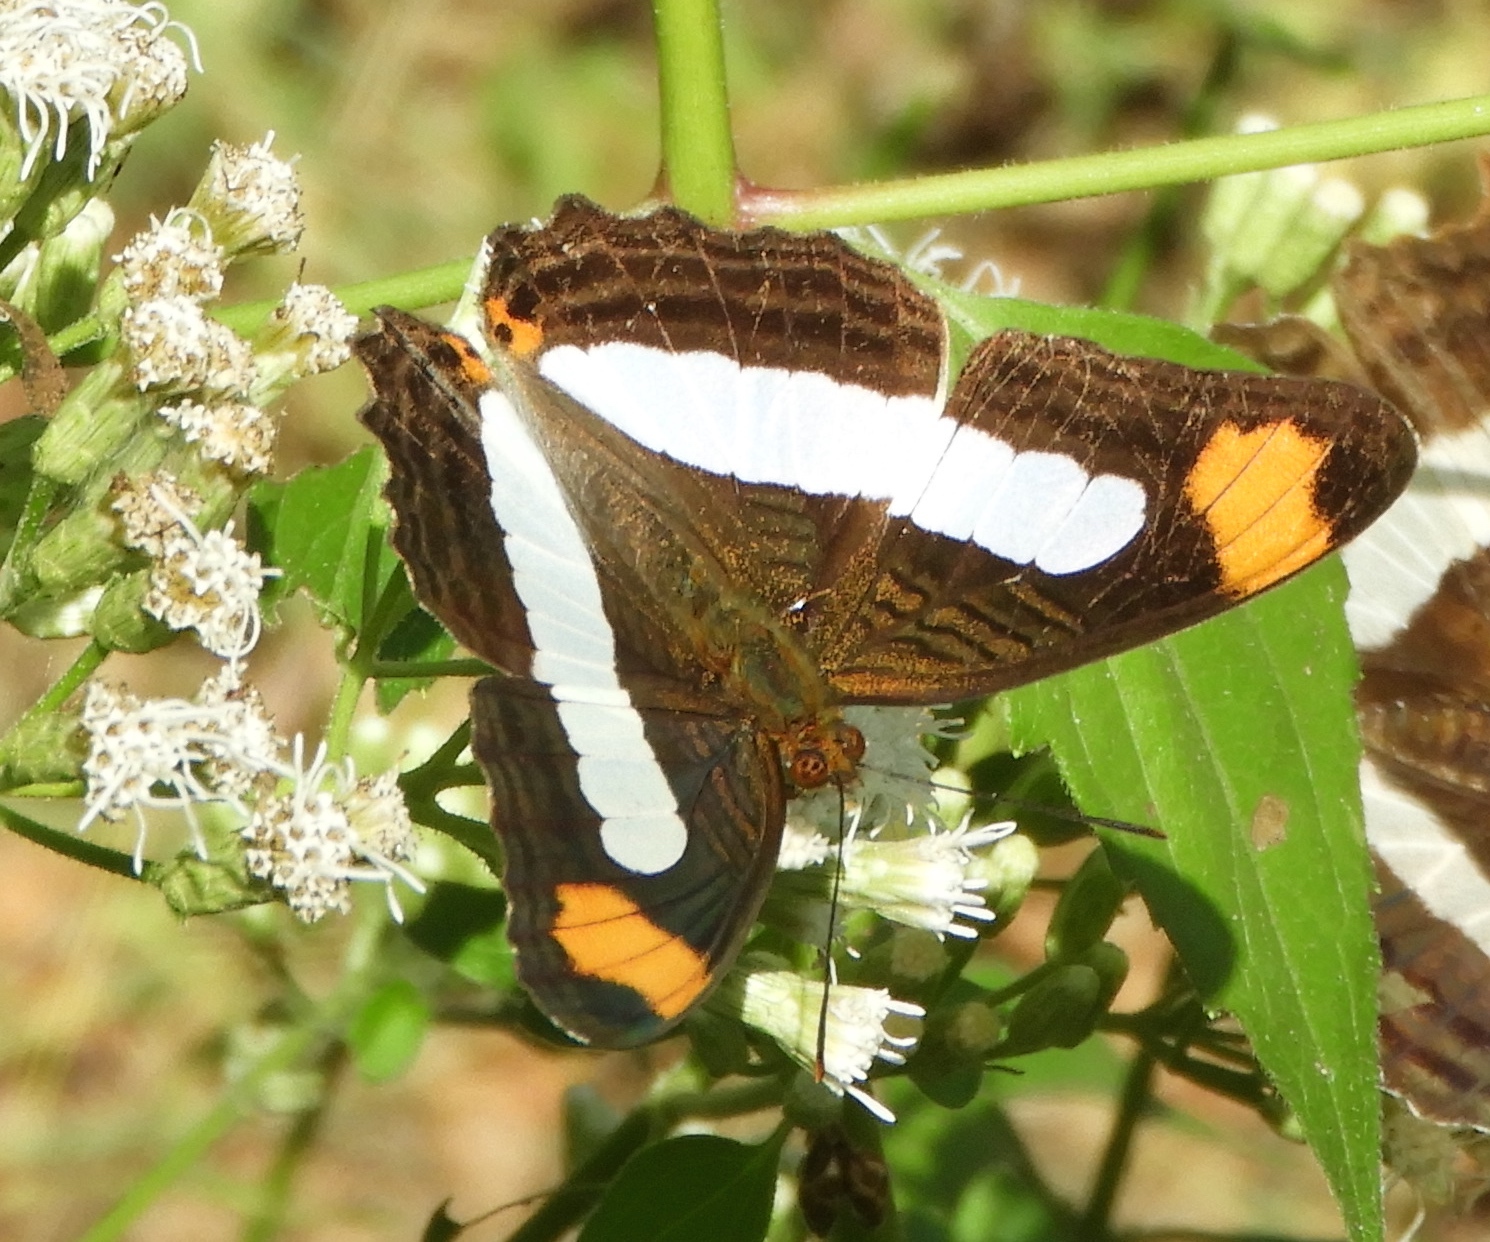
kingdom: Animalia
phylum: Arthropoda
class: Insecta
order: Lepidoptera
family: Nymphalidae
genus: Limenitis
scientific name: Limenitis iphiclus
